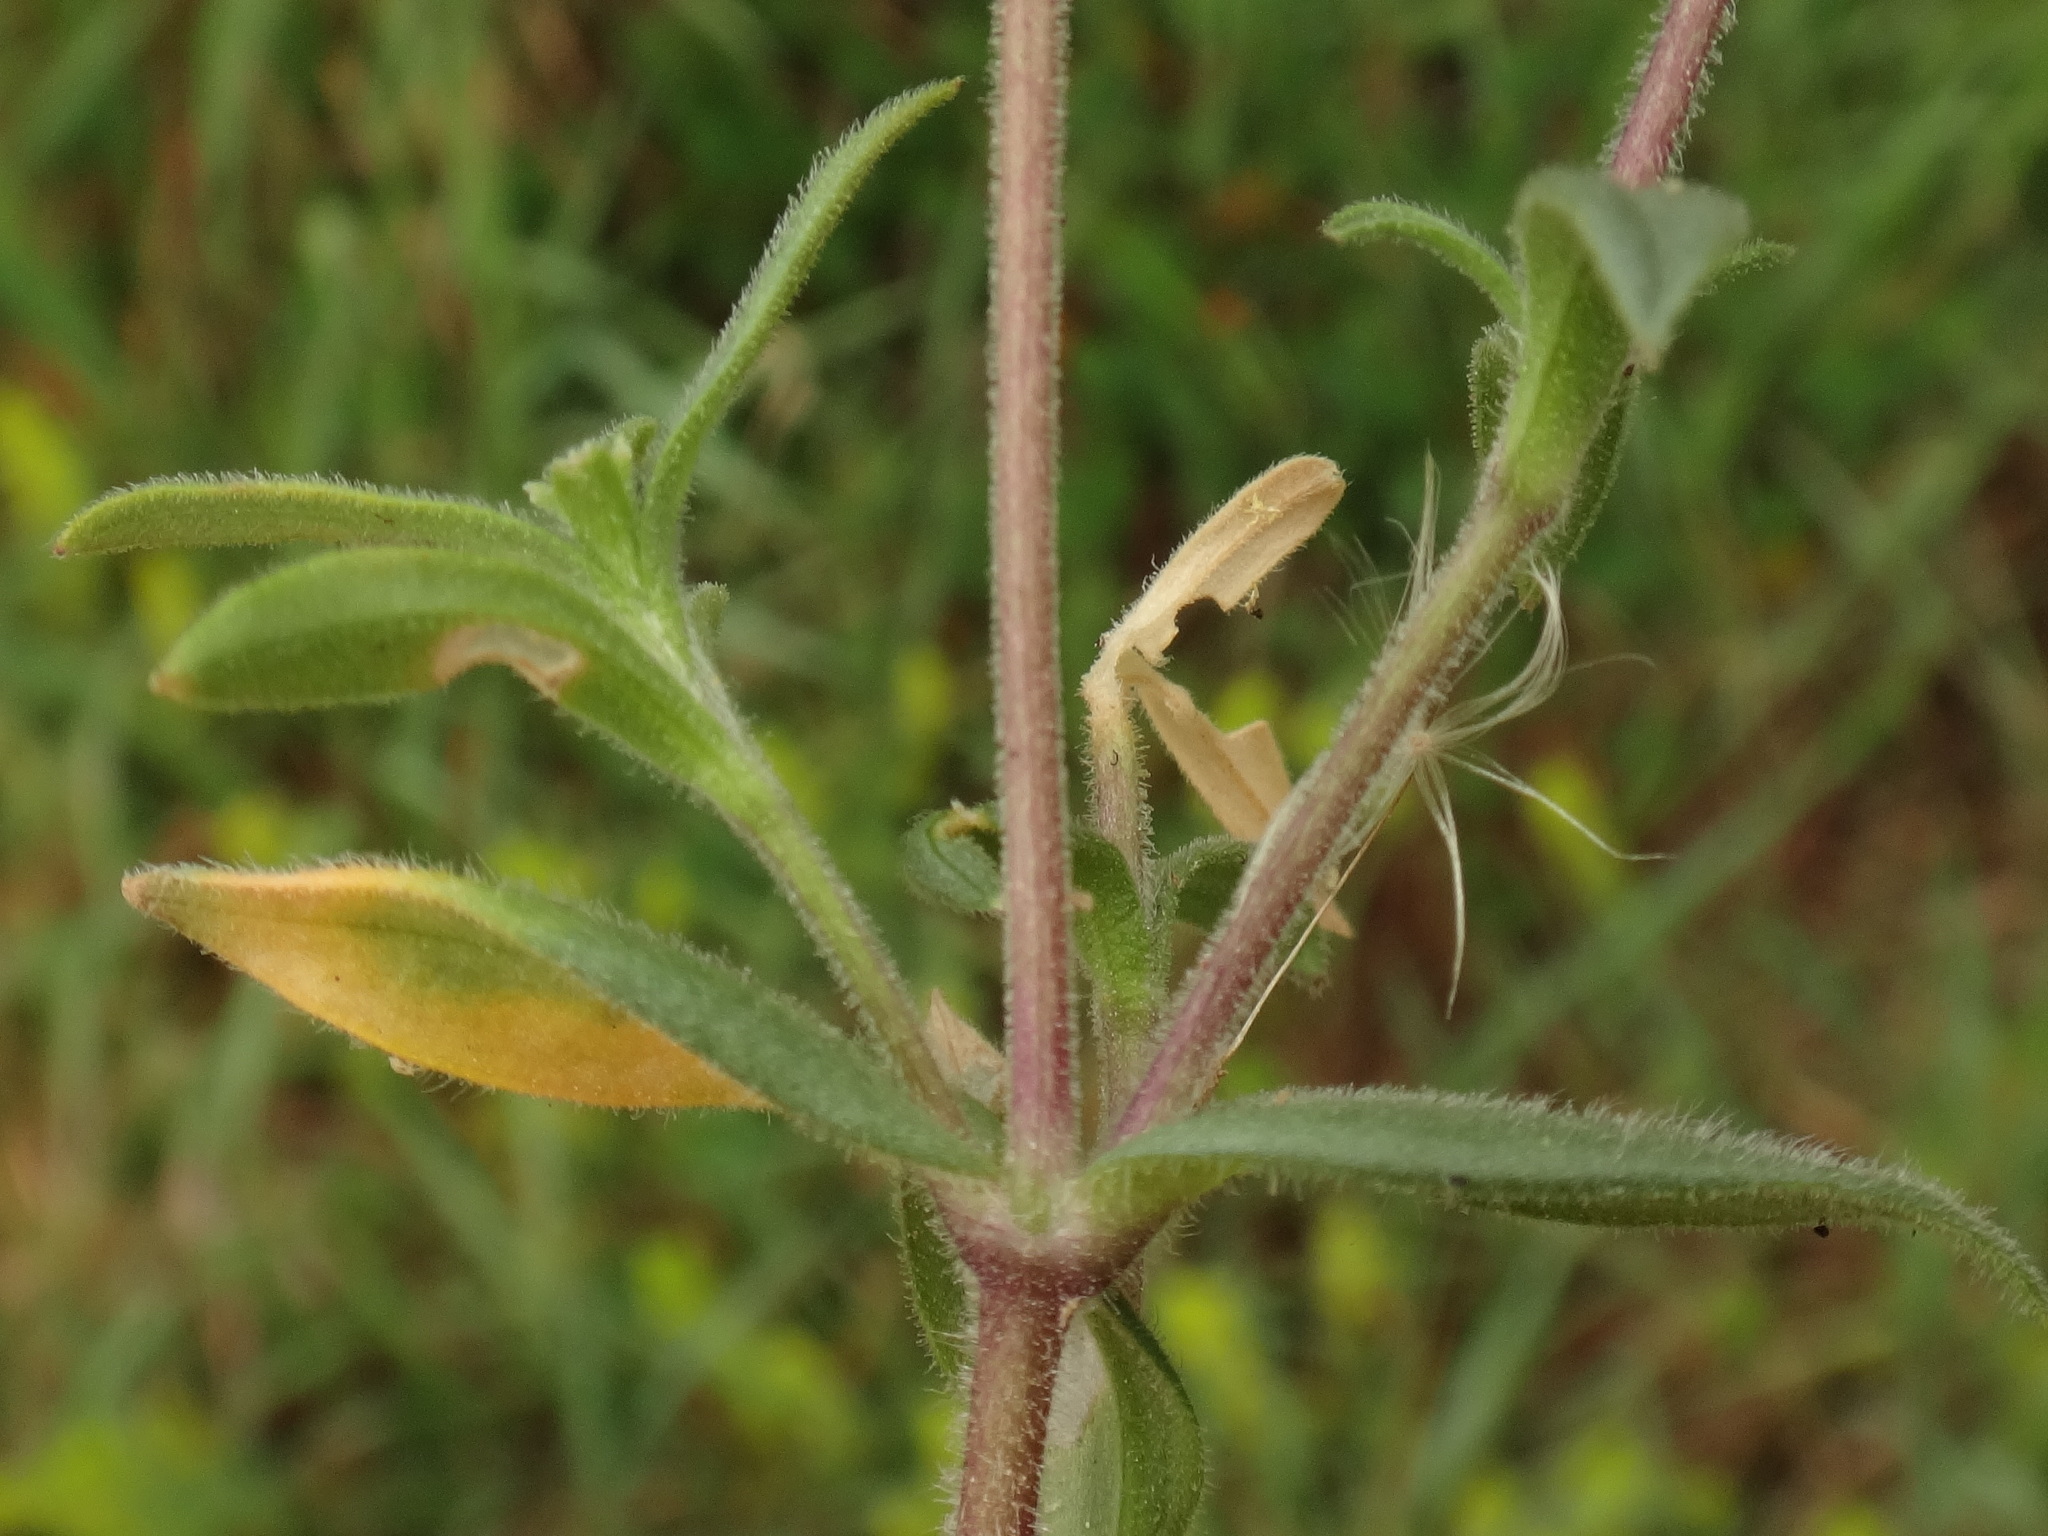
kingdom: Plantae
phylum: Tracheophyta
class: Magnoliopsida
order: Caryophyllales
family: Caryophyllaceae
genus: Cerastium
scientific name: Cerastium arvense
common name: Field mouse-ear
